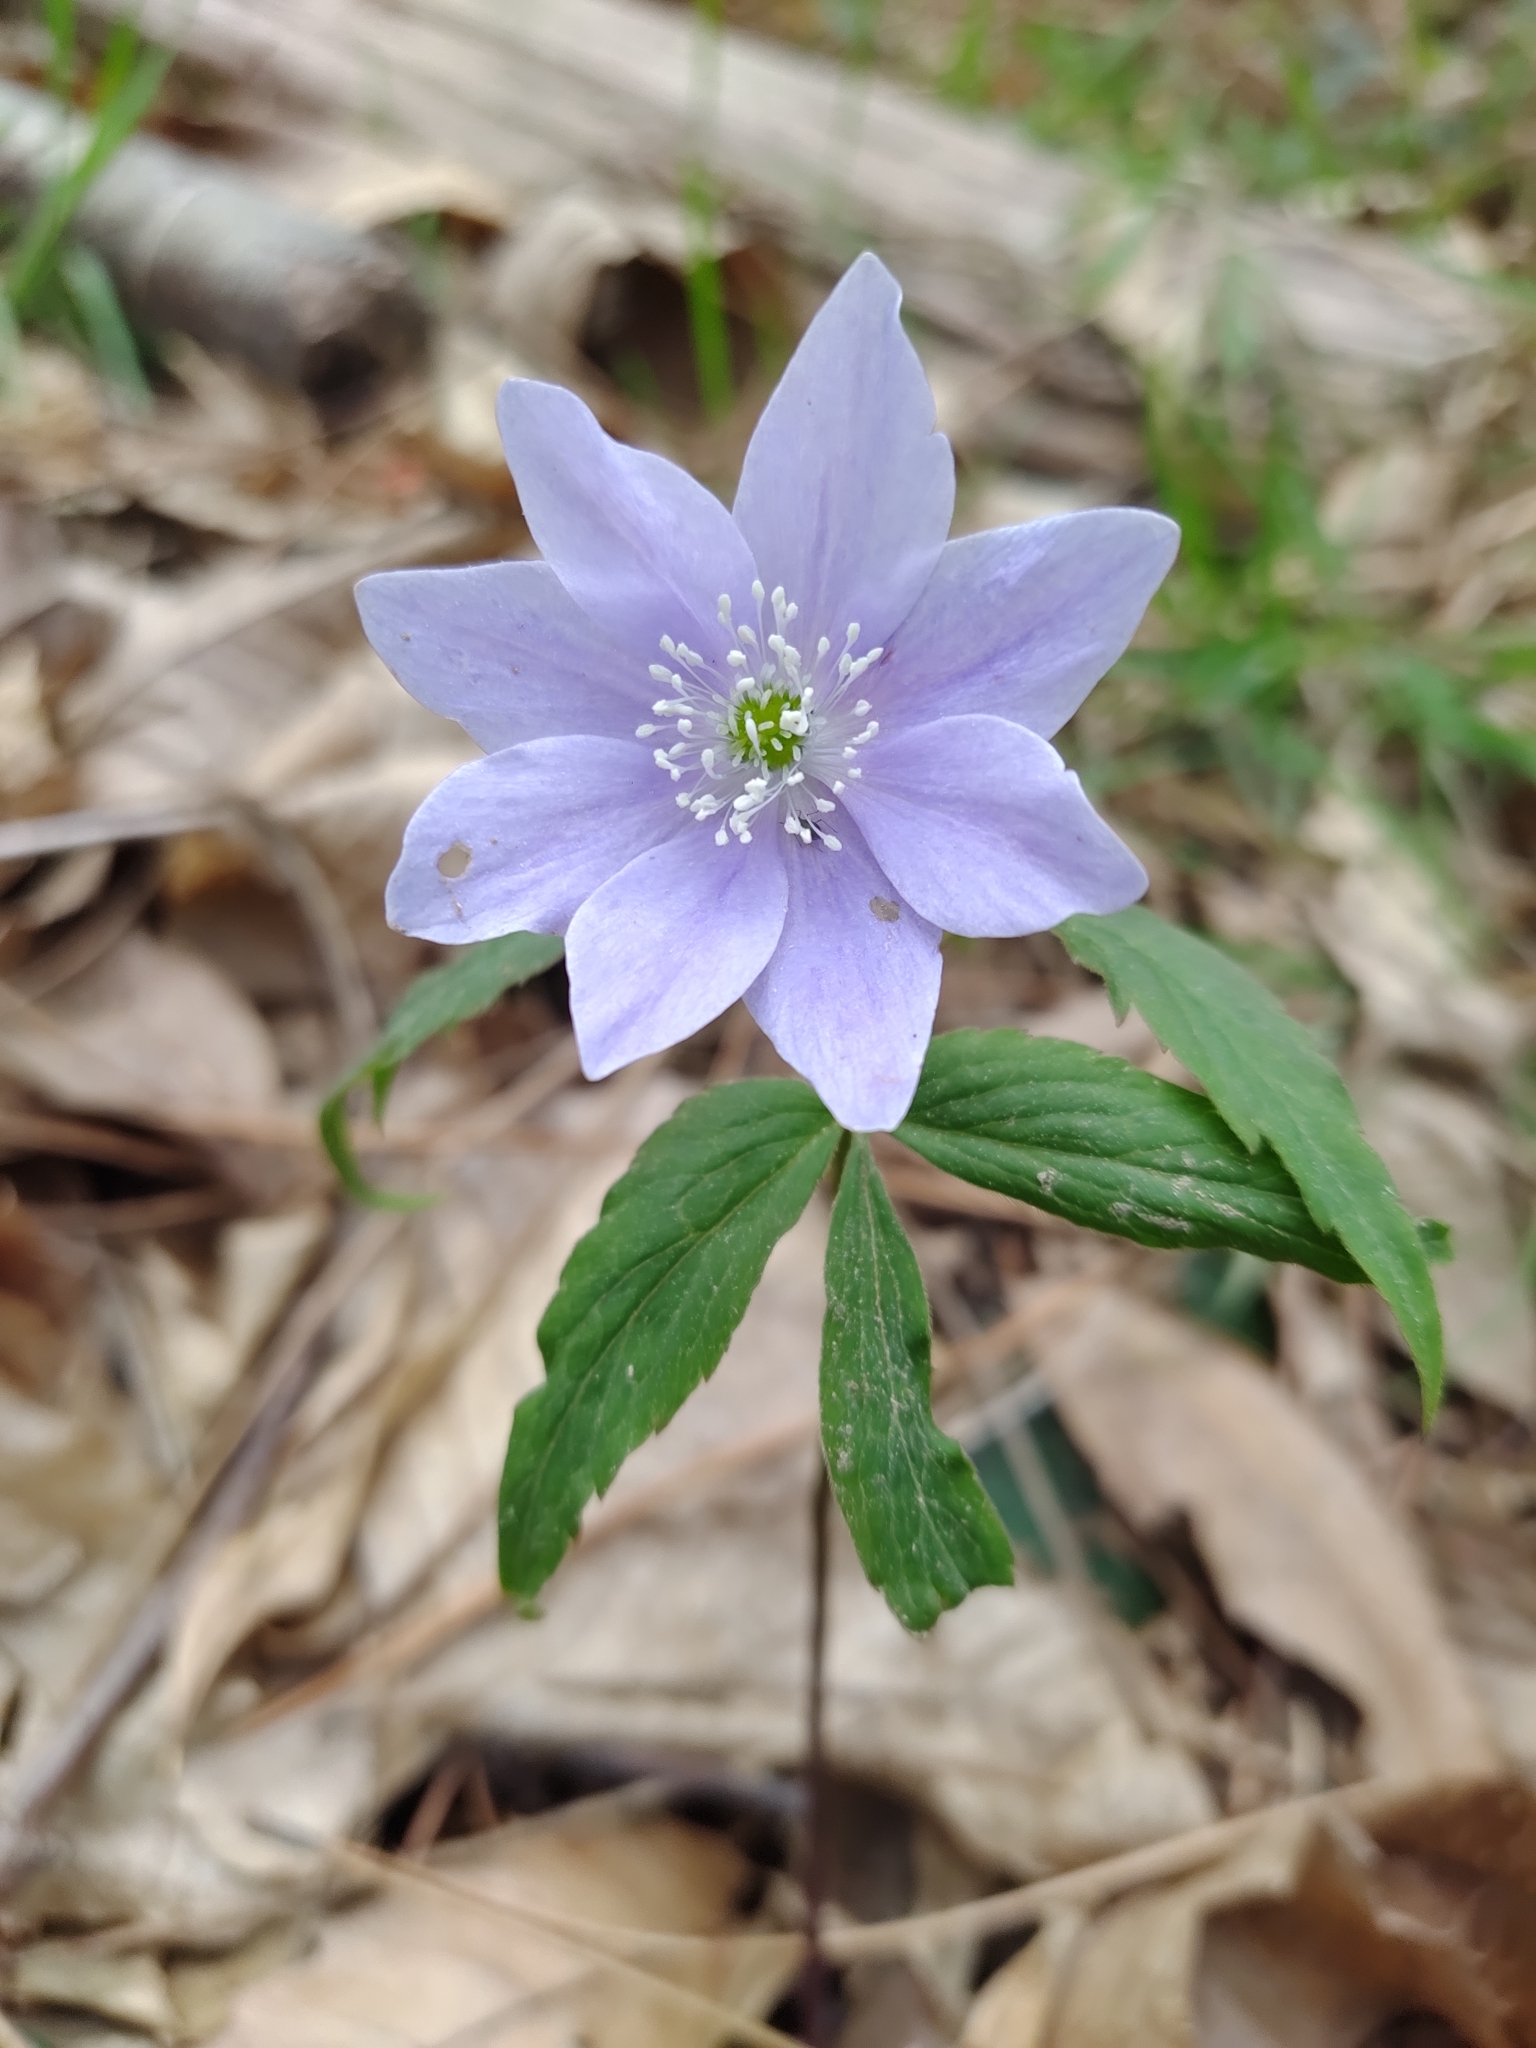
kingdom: Plantae
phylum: Tracheophyta
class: Magnoliopsida
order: Ranunculales
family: Ranunculaceae
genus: Anemone
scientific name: Anemone trifolia
